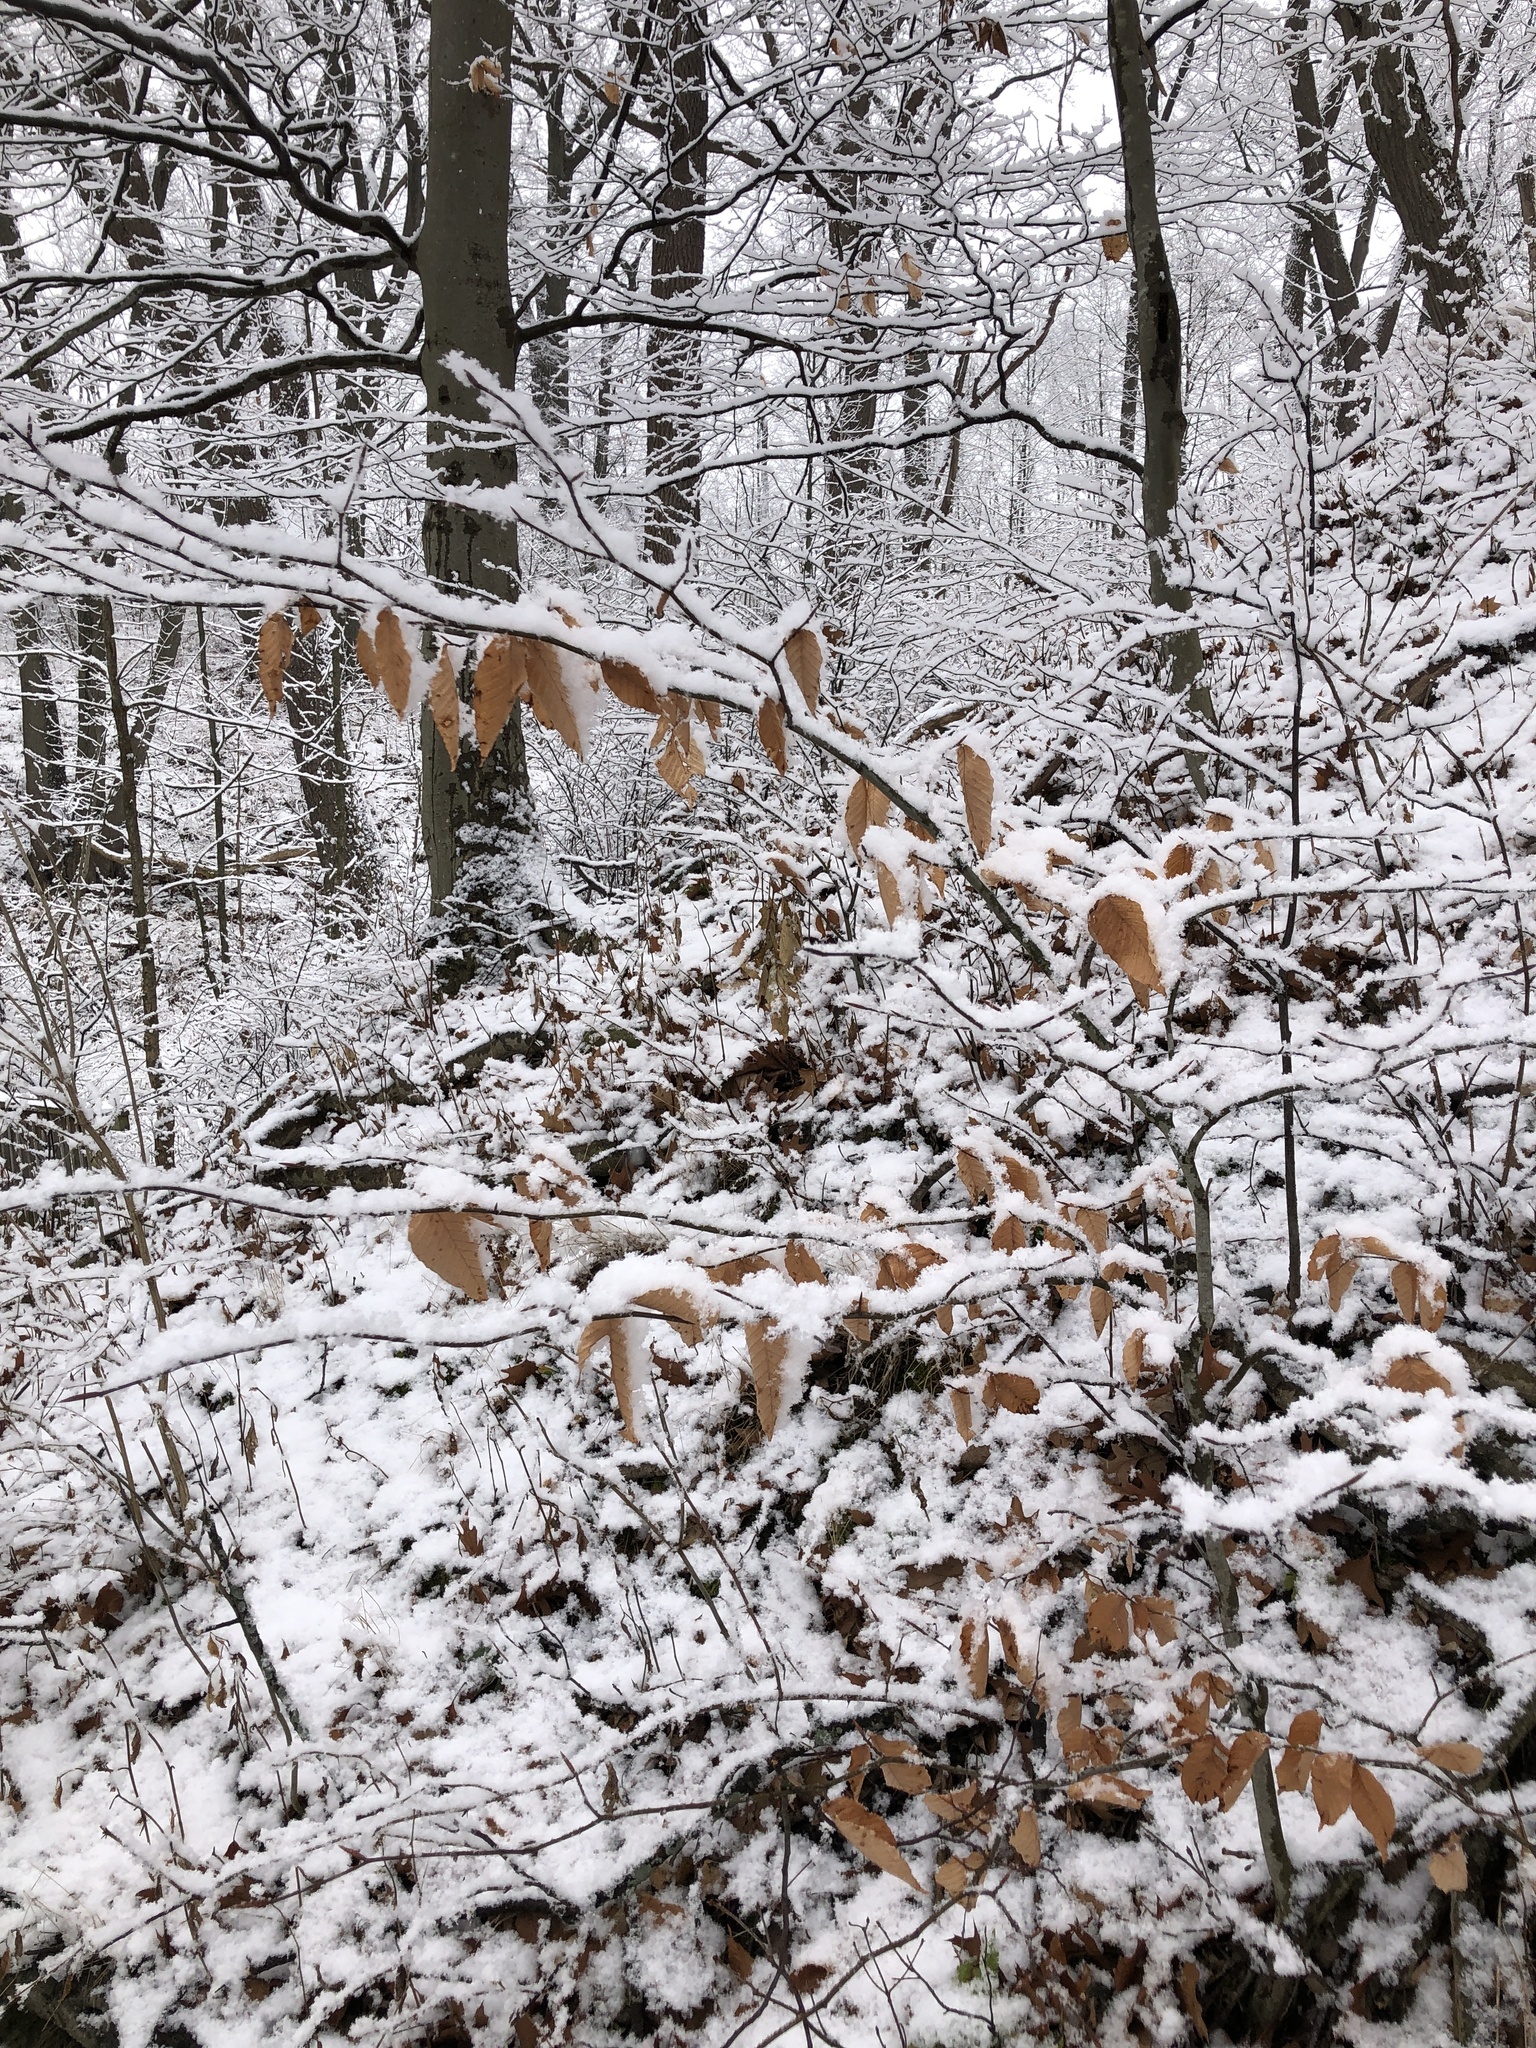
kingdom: Plantae
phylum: Tracheophyta
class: Magnoliopsida
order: Fagales
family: Fagaceae
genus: Fagus
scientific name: Fagus grandifolia
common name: American beech
